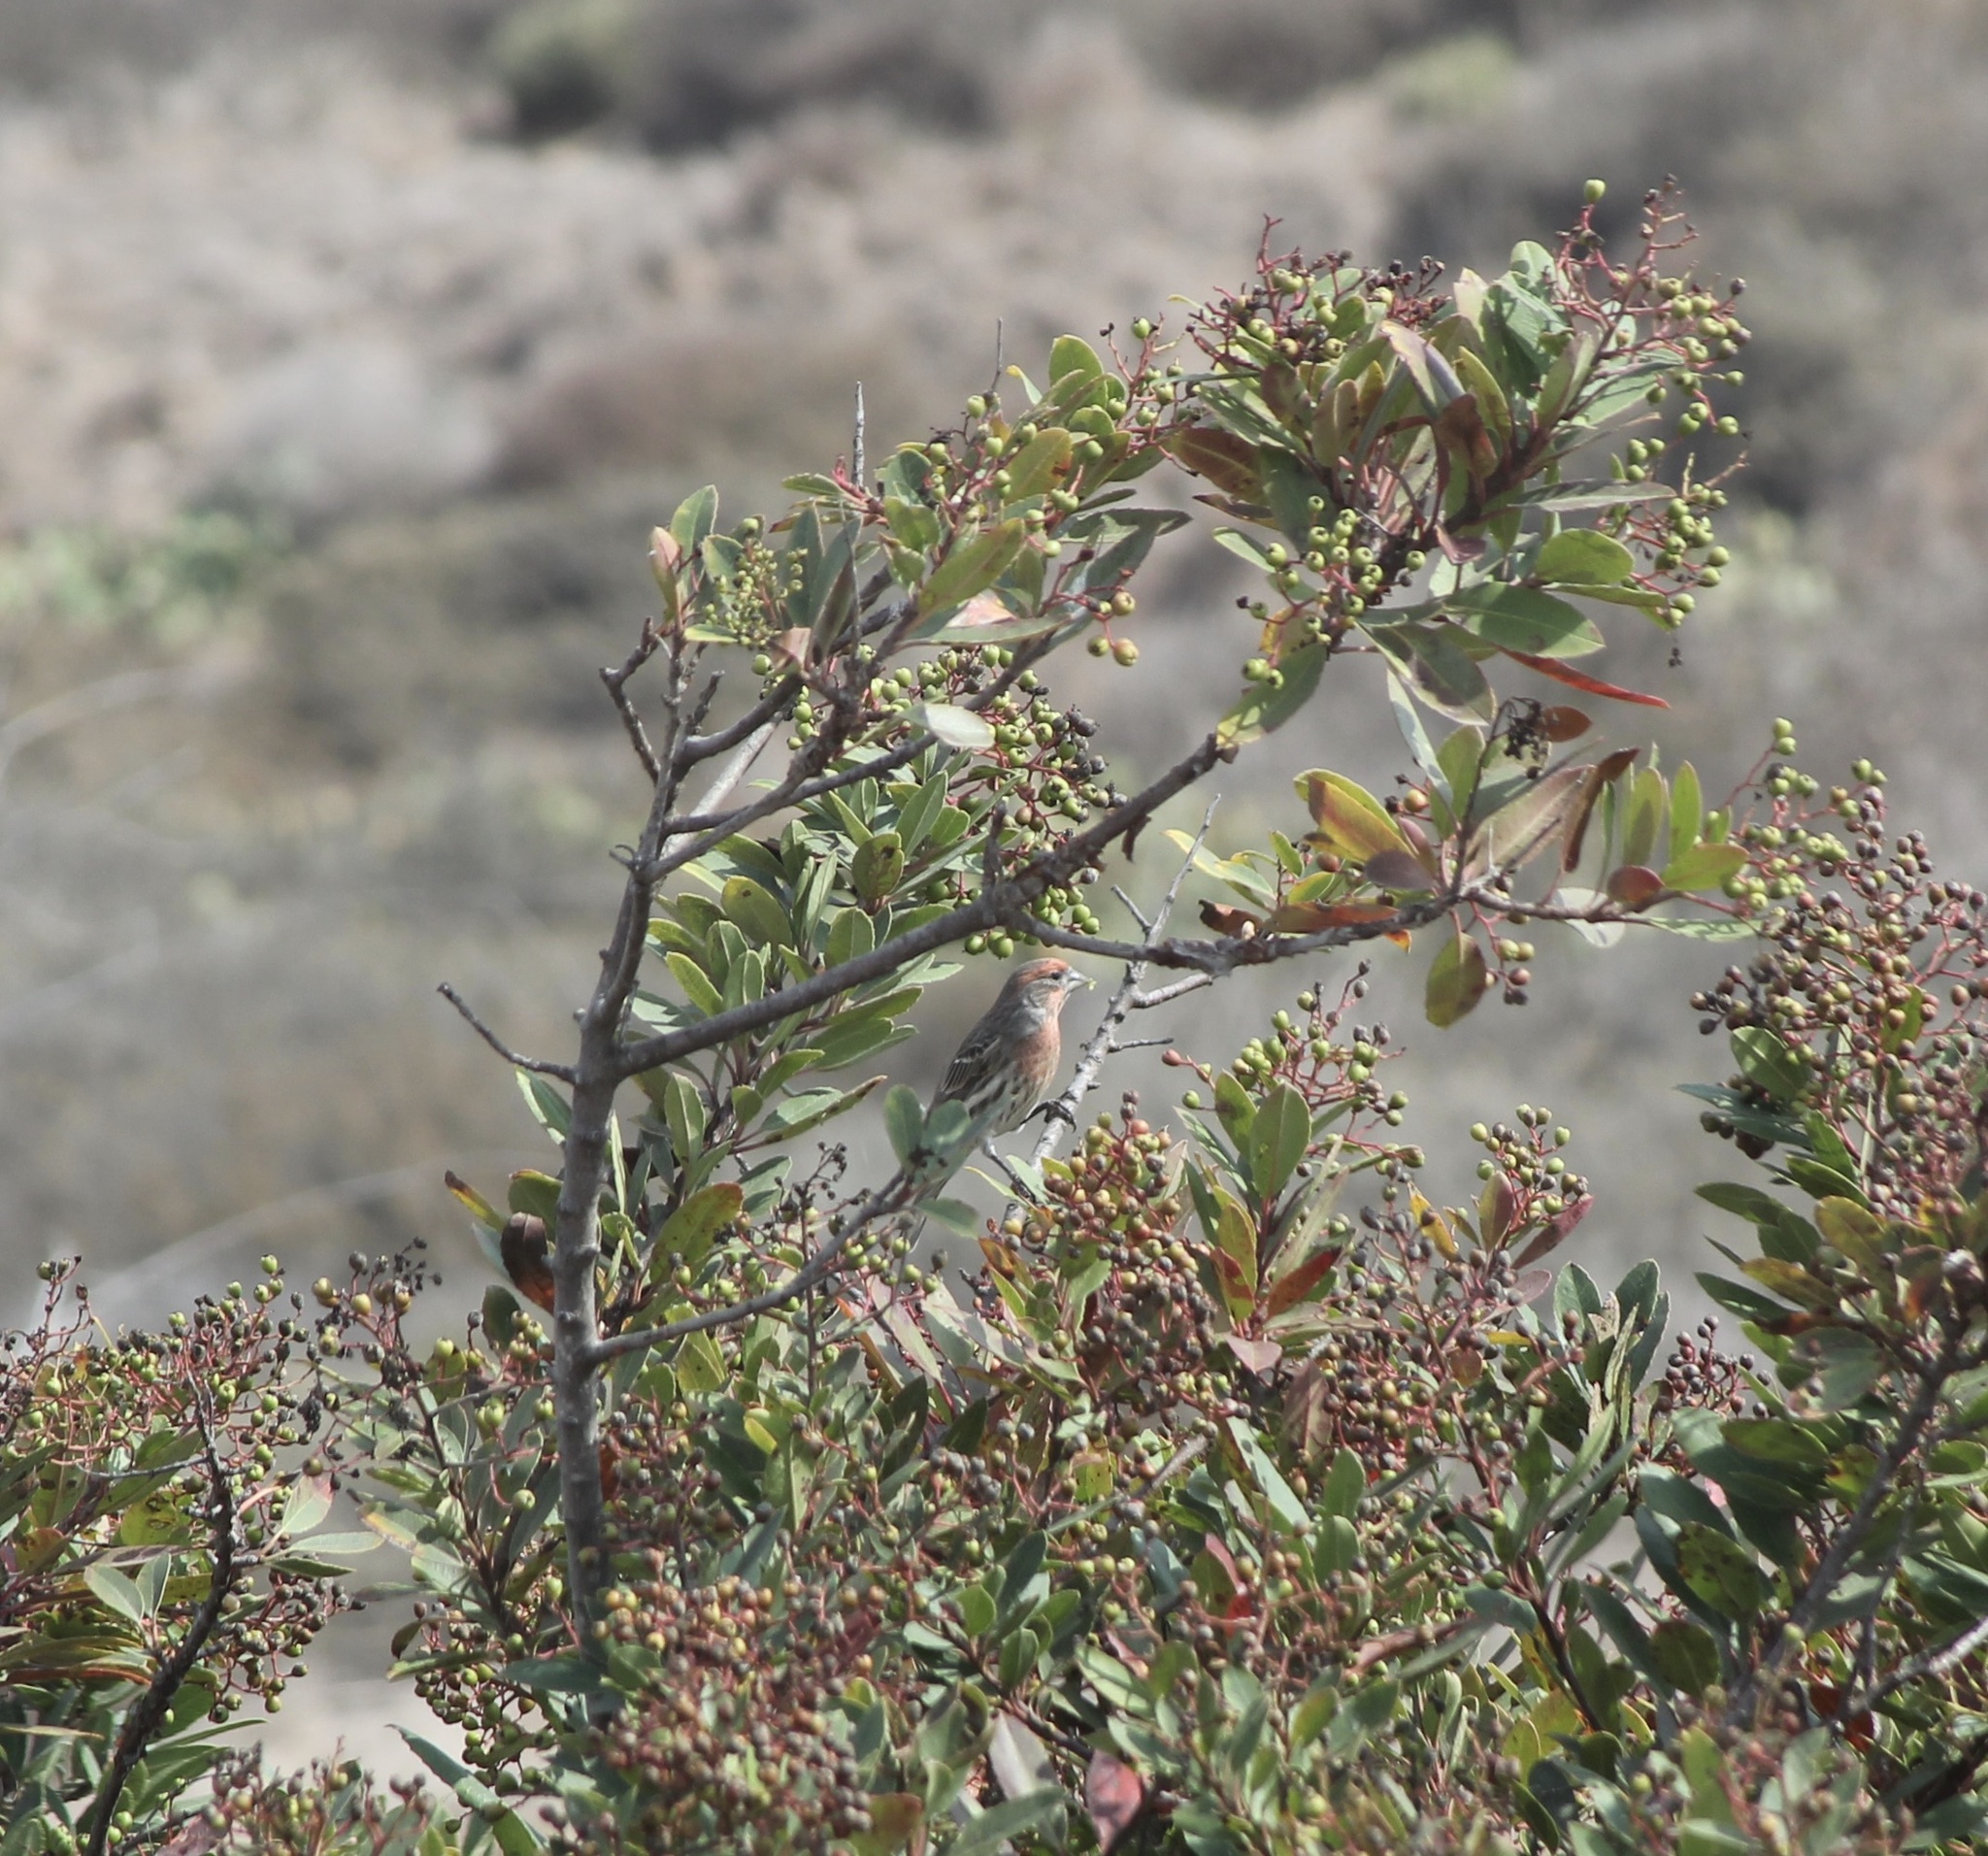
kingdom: Animalia
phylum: Chordata
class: Aves
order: Passeriformes
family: Fringillidae
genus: Haemorhous
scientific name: Haemorhous mexicanus
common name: House finch
